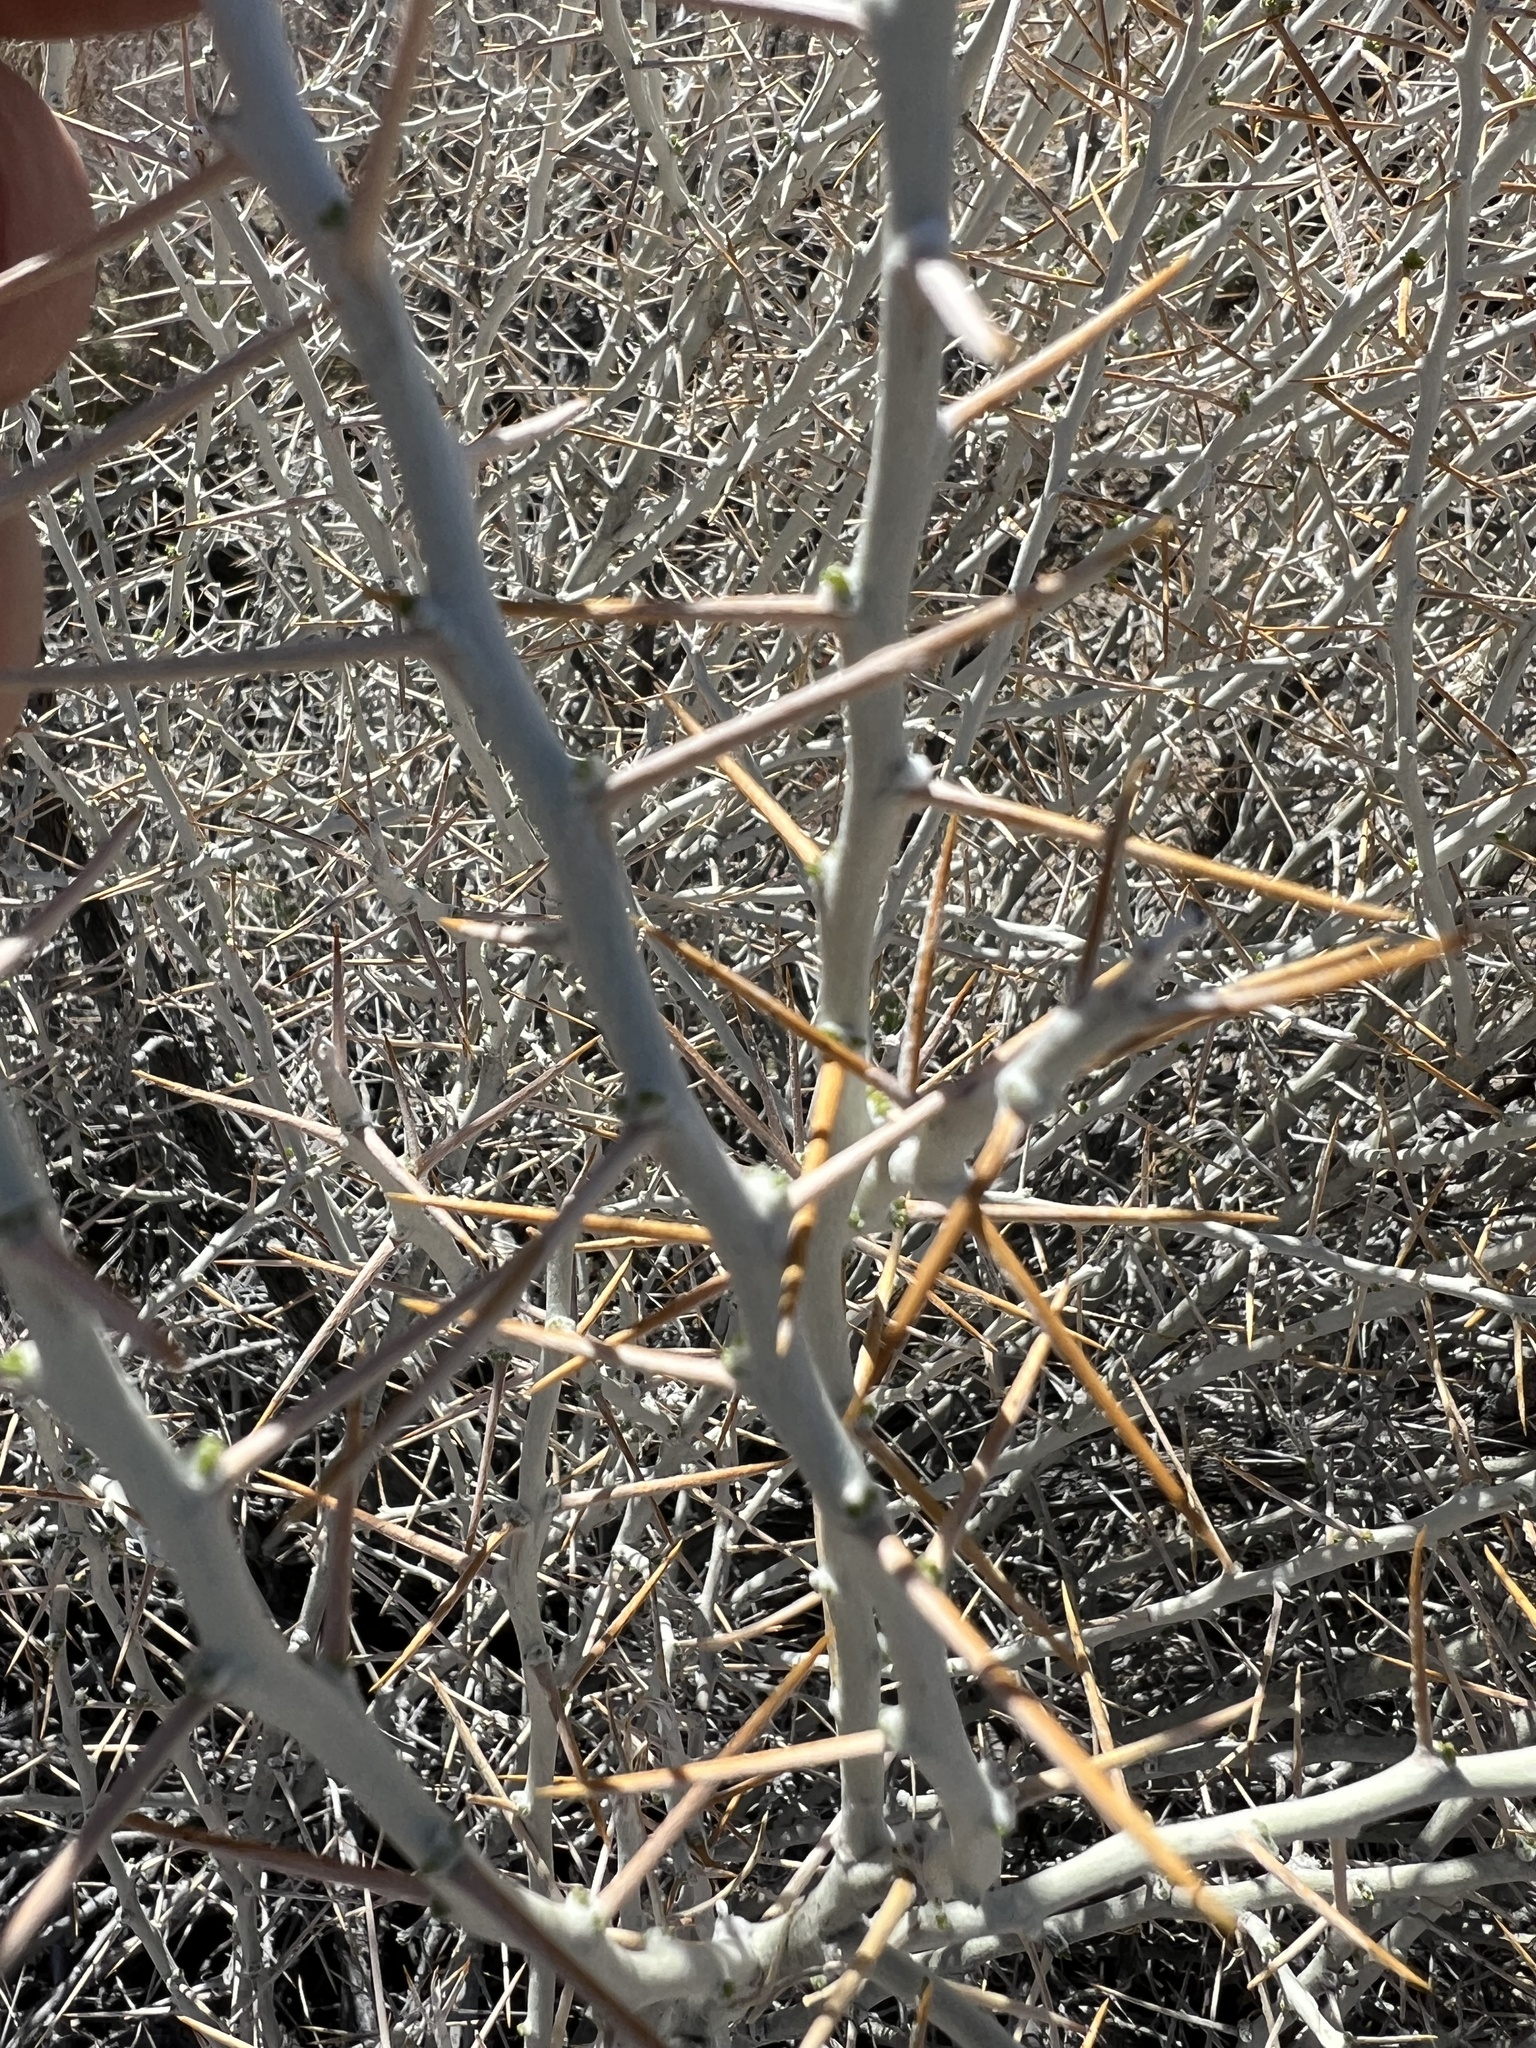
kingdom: Plantae
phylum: Tracheophyta
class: Magnoliopsida
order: Asterales
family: Asteraceae
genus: Tetradymia
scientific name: Tetradymia axillaris
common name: Long-spine horsebrush
